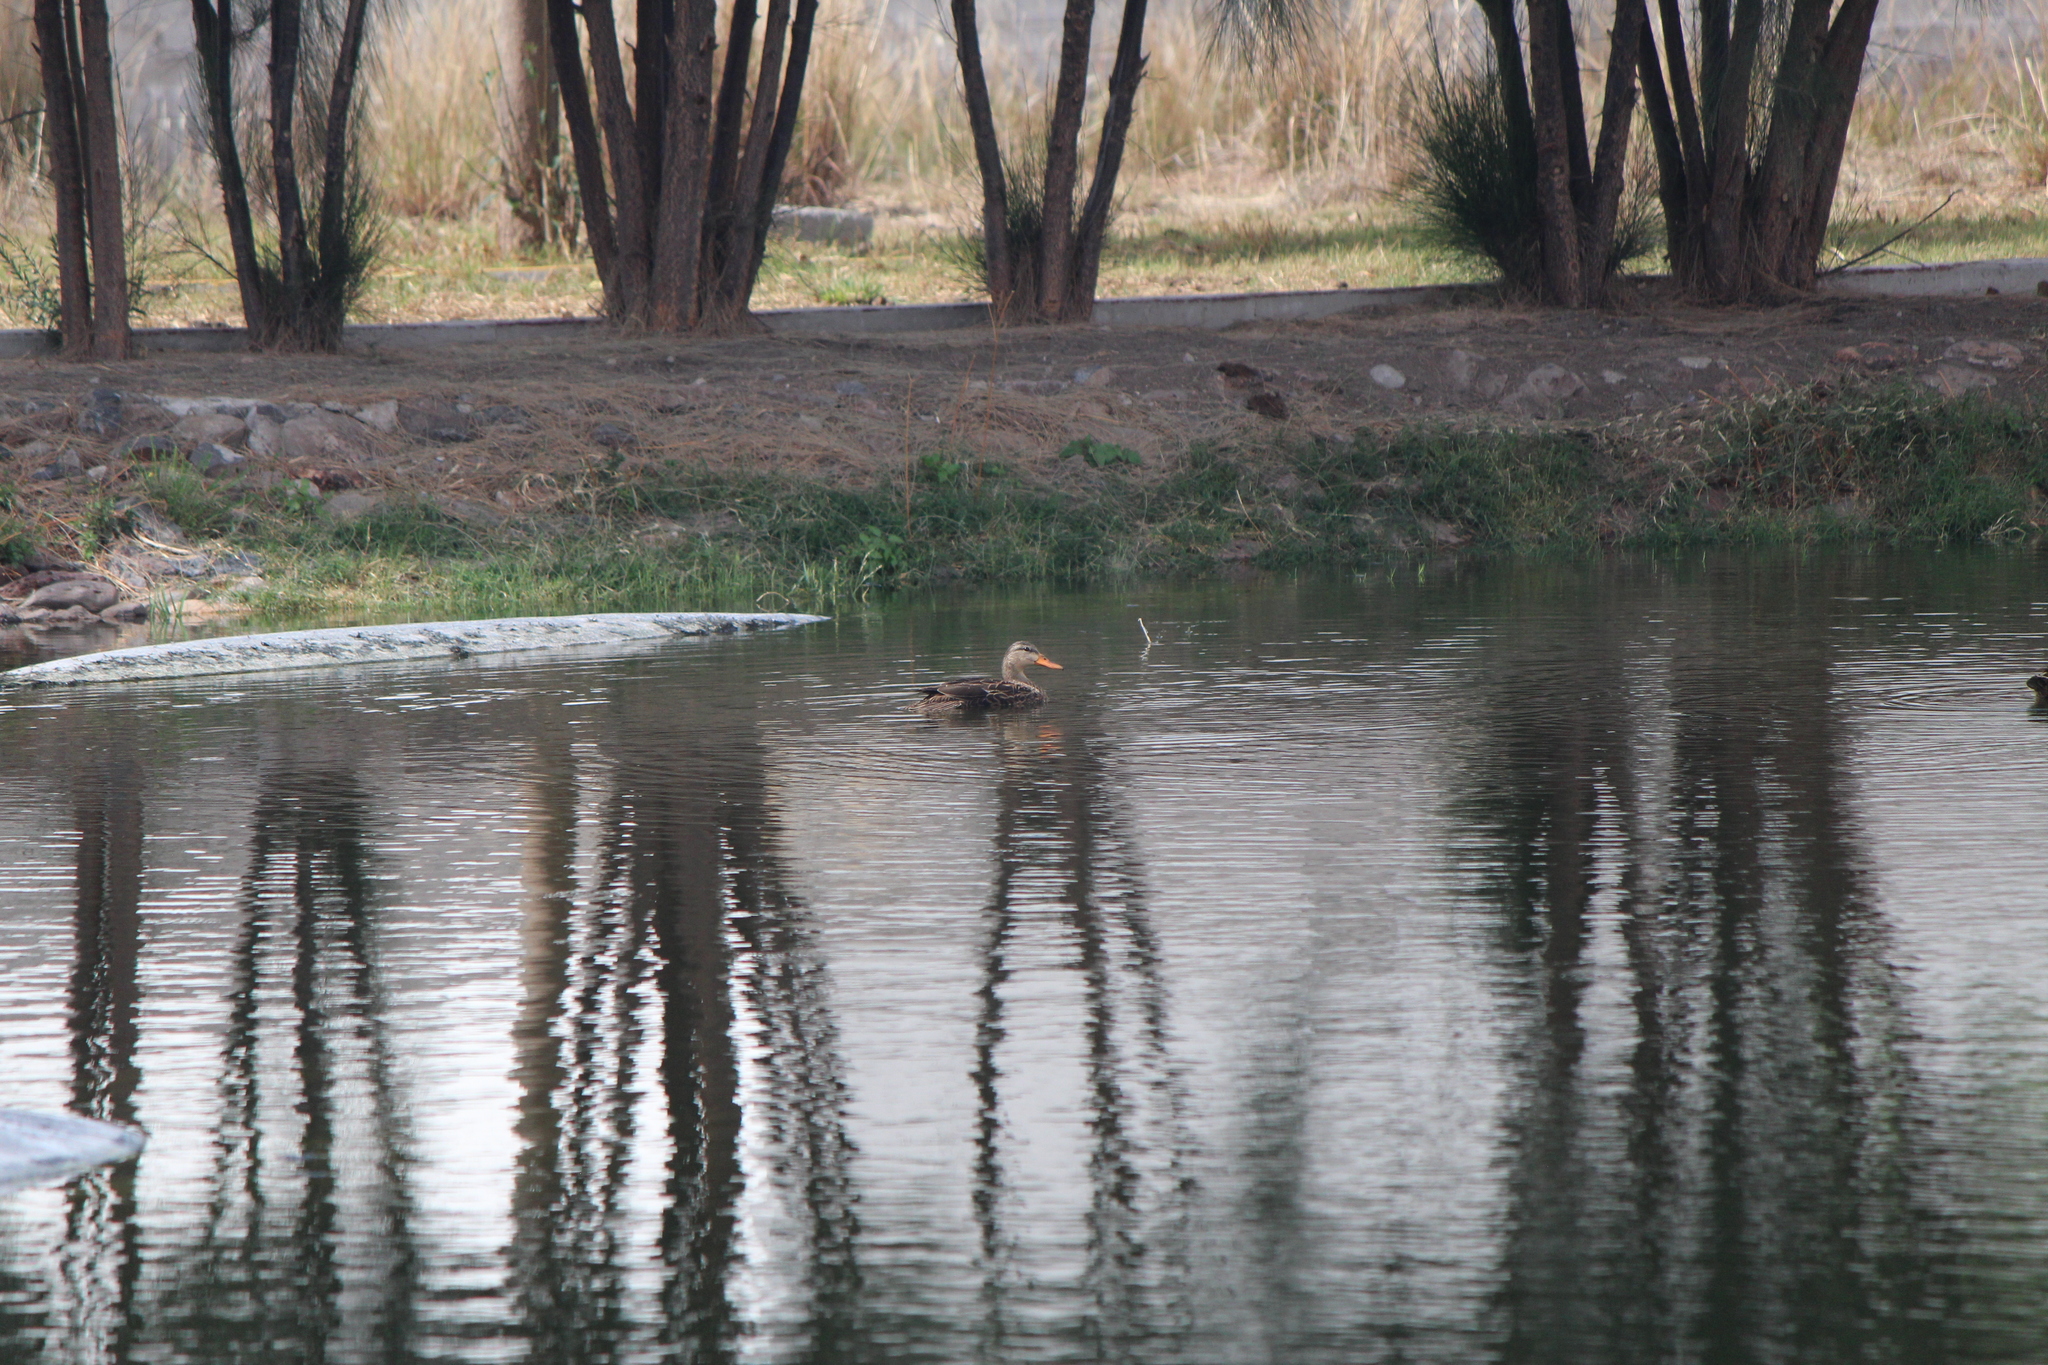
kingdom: Animalia
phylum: Chordata
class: Aves
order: Anseriformes
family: Anatidae
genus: Anas
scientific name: Anas diazi
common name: Mexican duck
